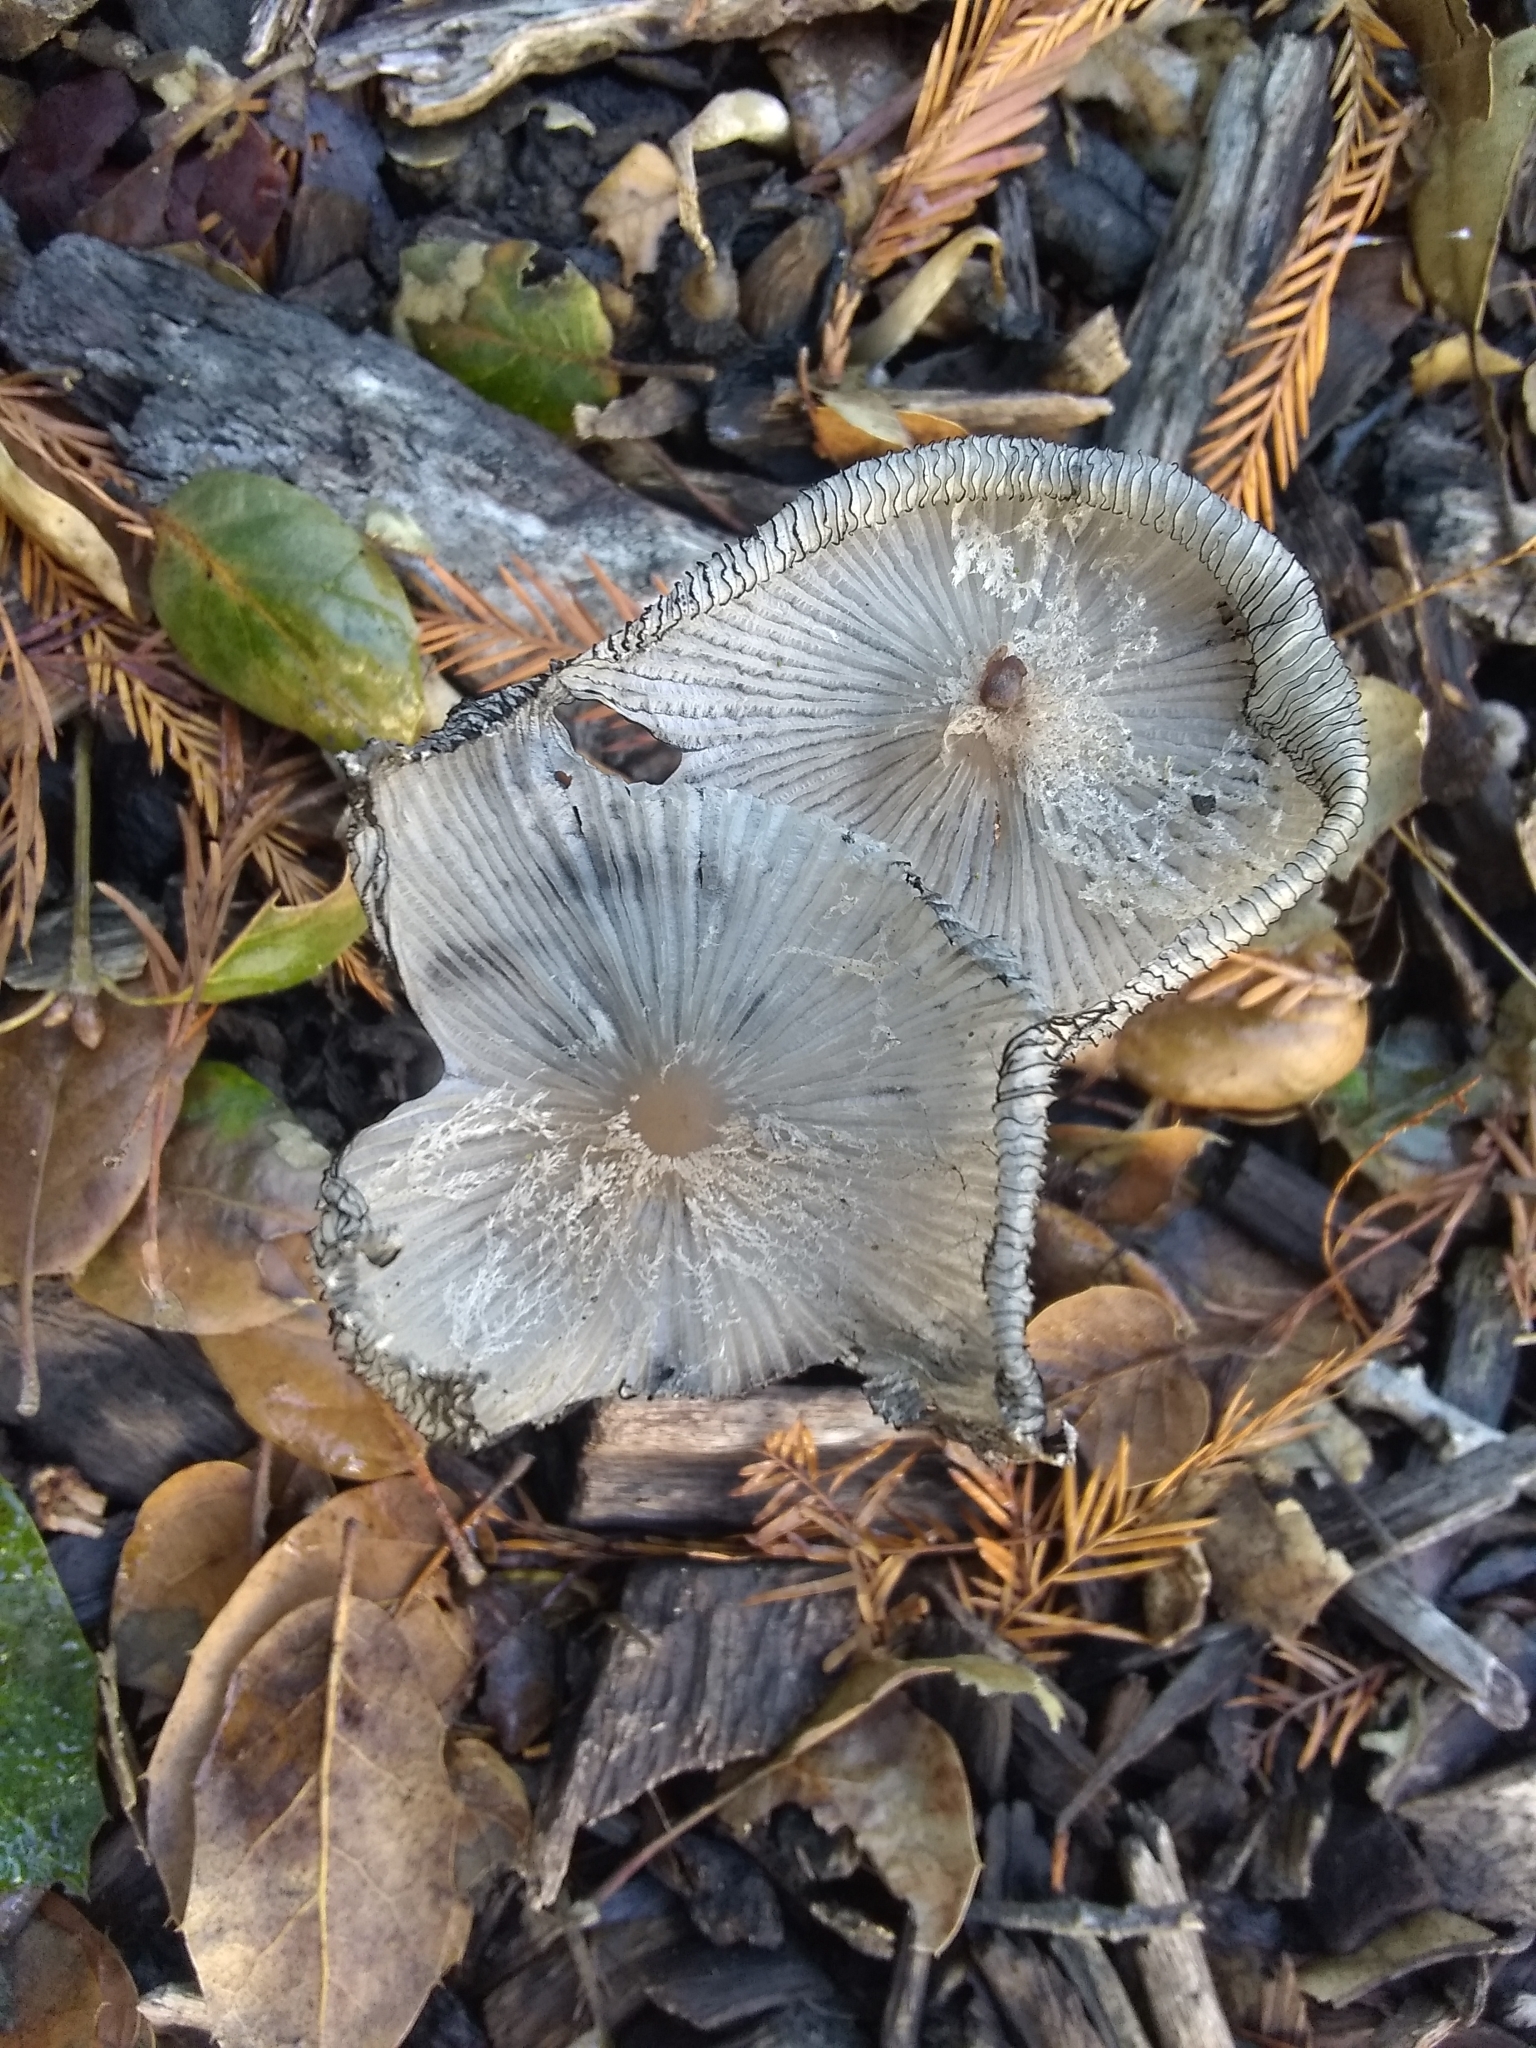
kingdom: Fungi
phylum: Basidiomycota
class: Agaricomycetes
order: Agaricales
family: Psathyrellaceae
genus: Coprinopsis
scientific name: Coprinopsis lagopus
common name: Hare'sfoot inkcap
